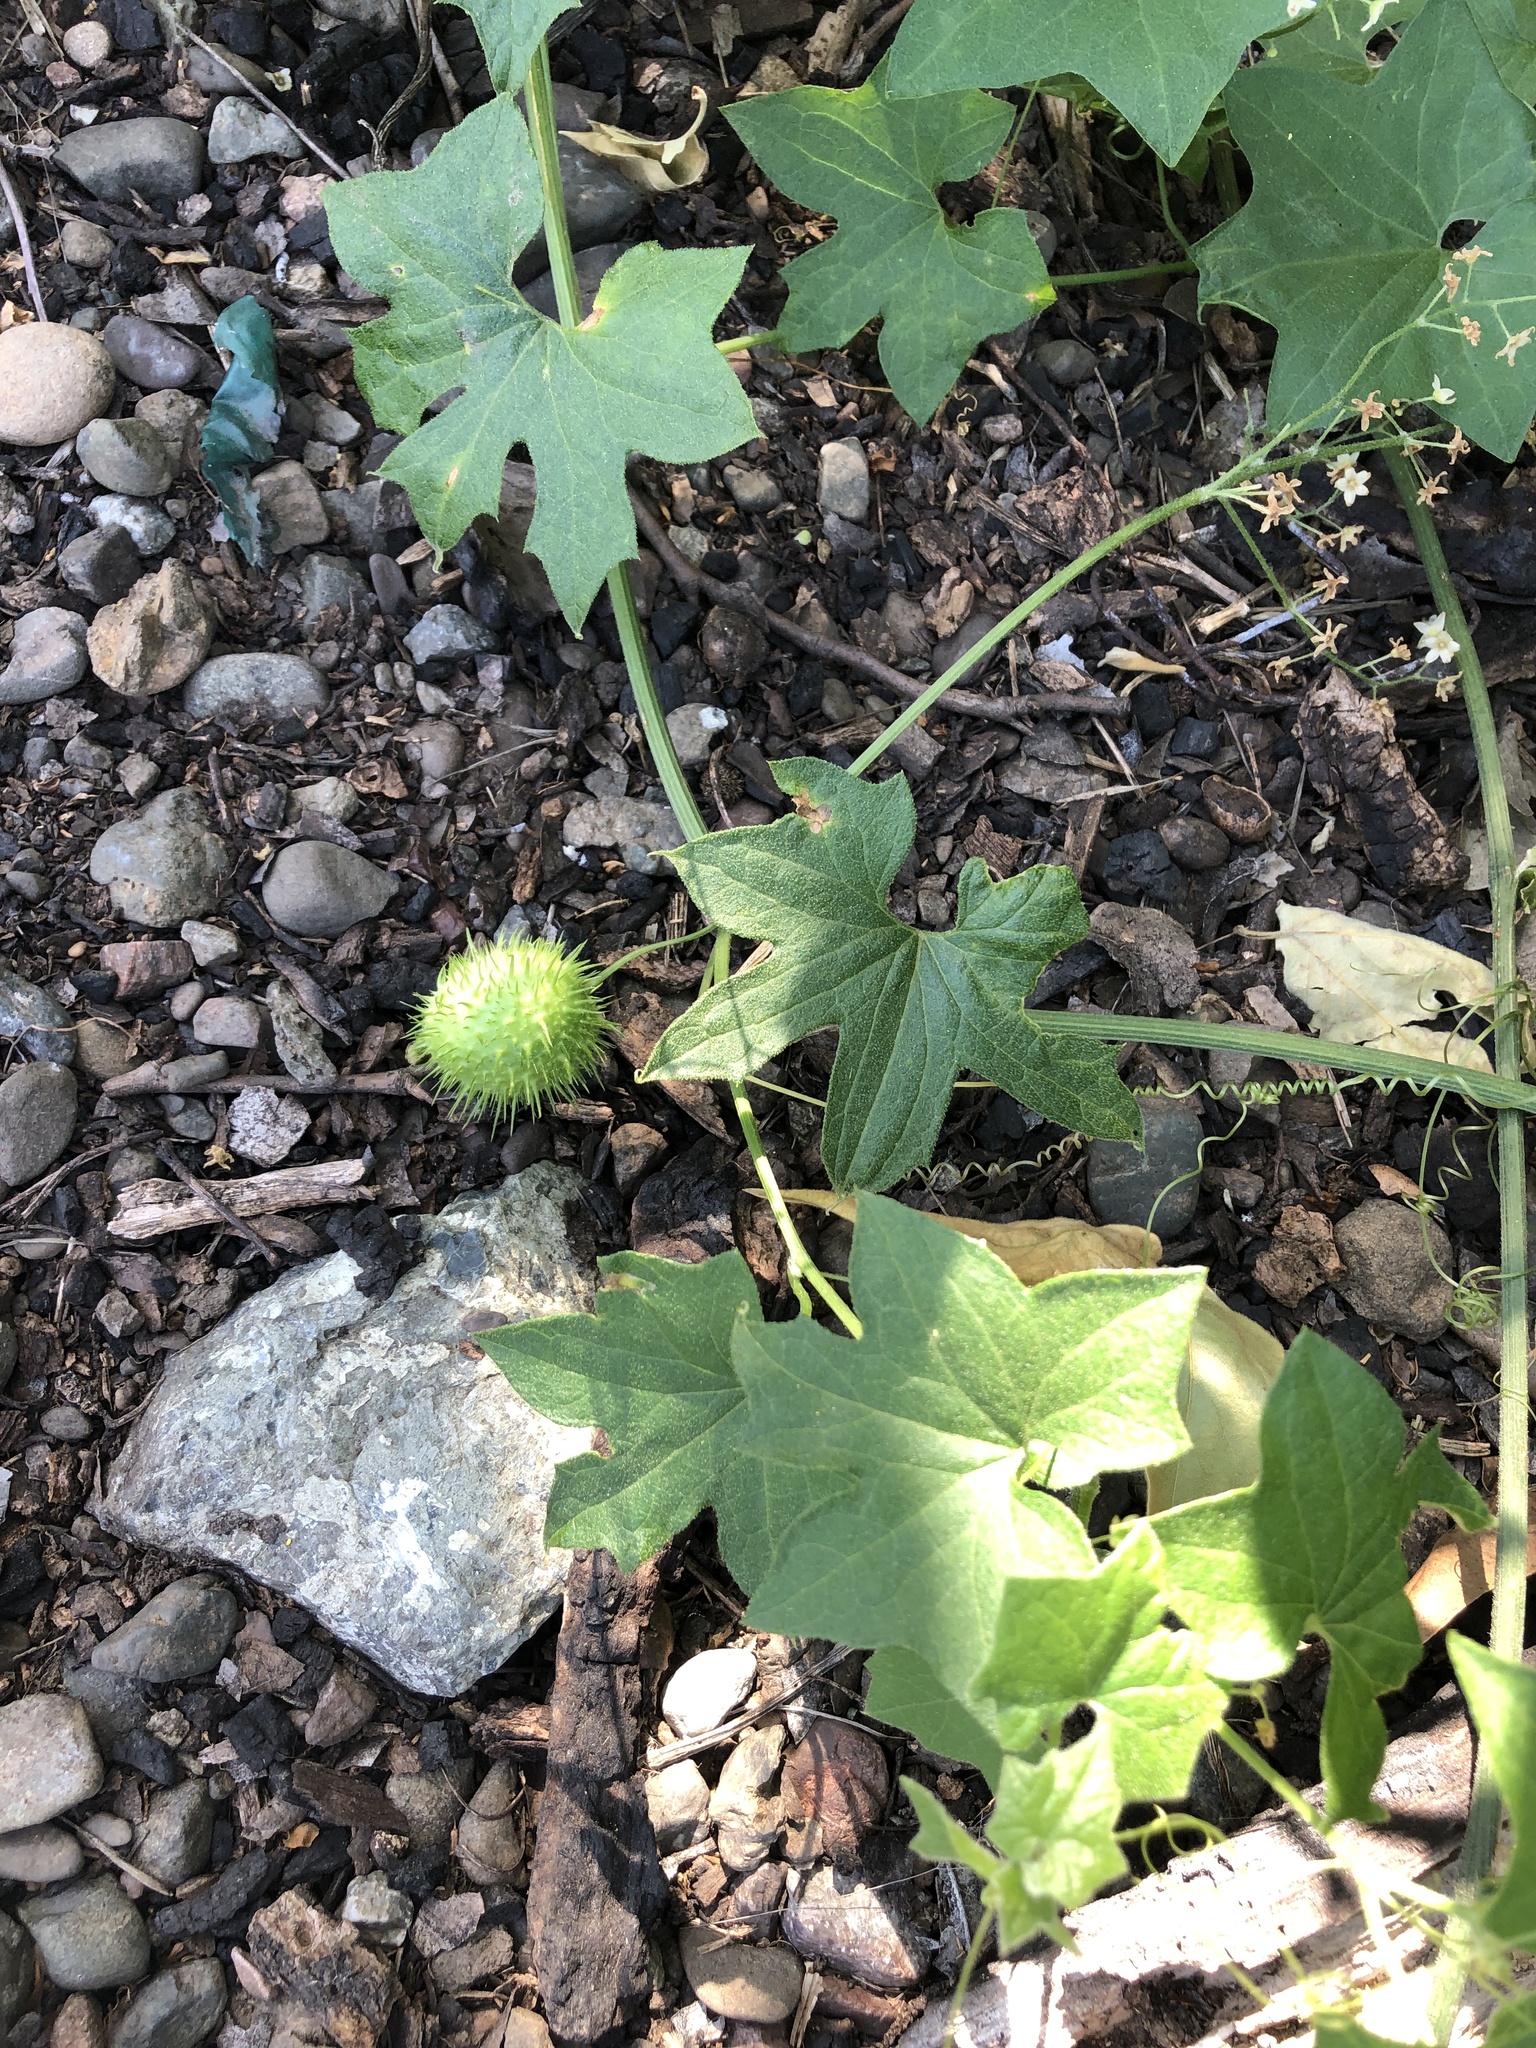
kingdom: Plantae
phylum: Tracheophyta
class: Magnoliopsida
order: Cucurbitales
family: Cucurbitaceae
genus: Marah
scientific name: Marah fabacea
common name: California manroot
